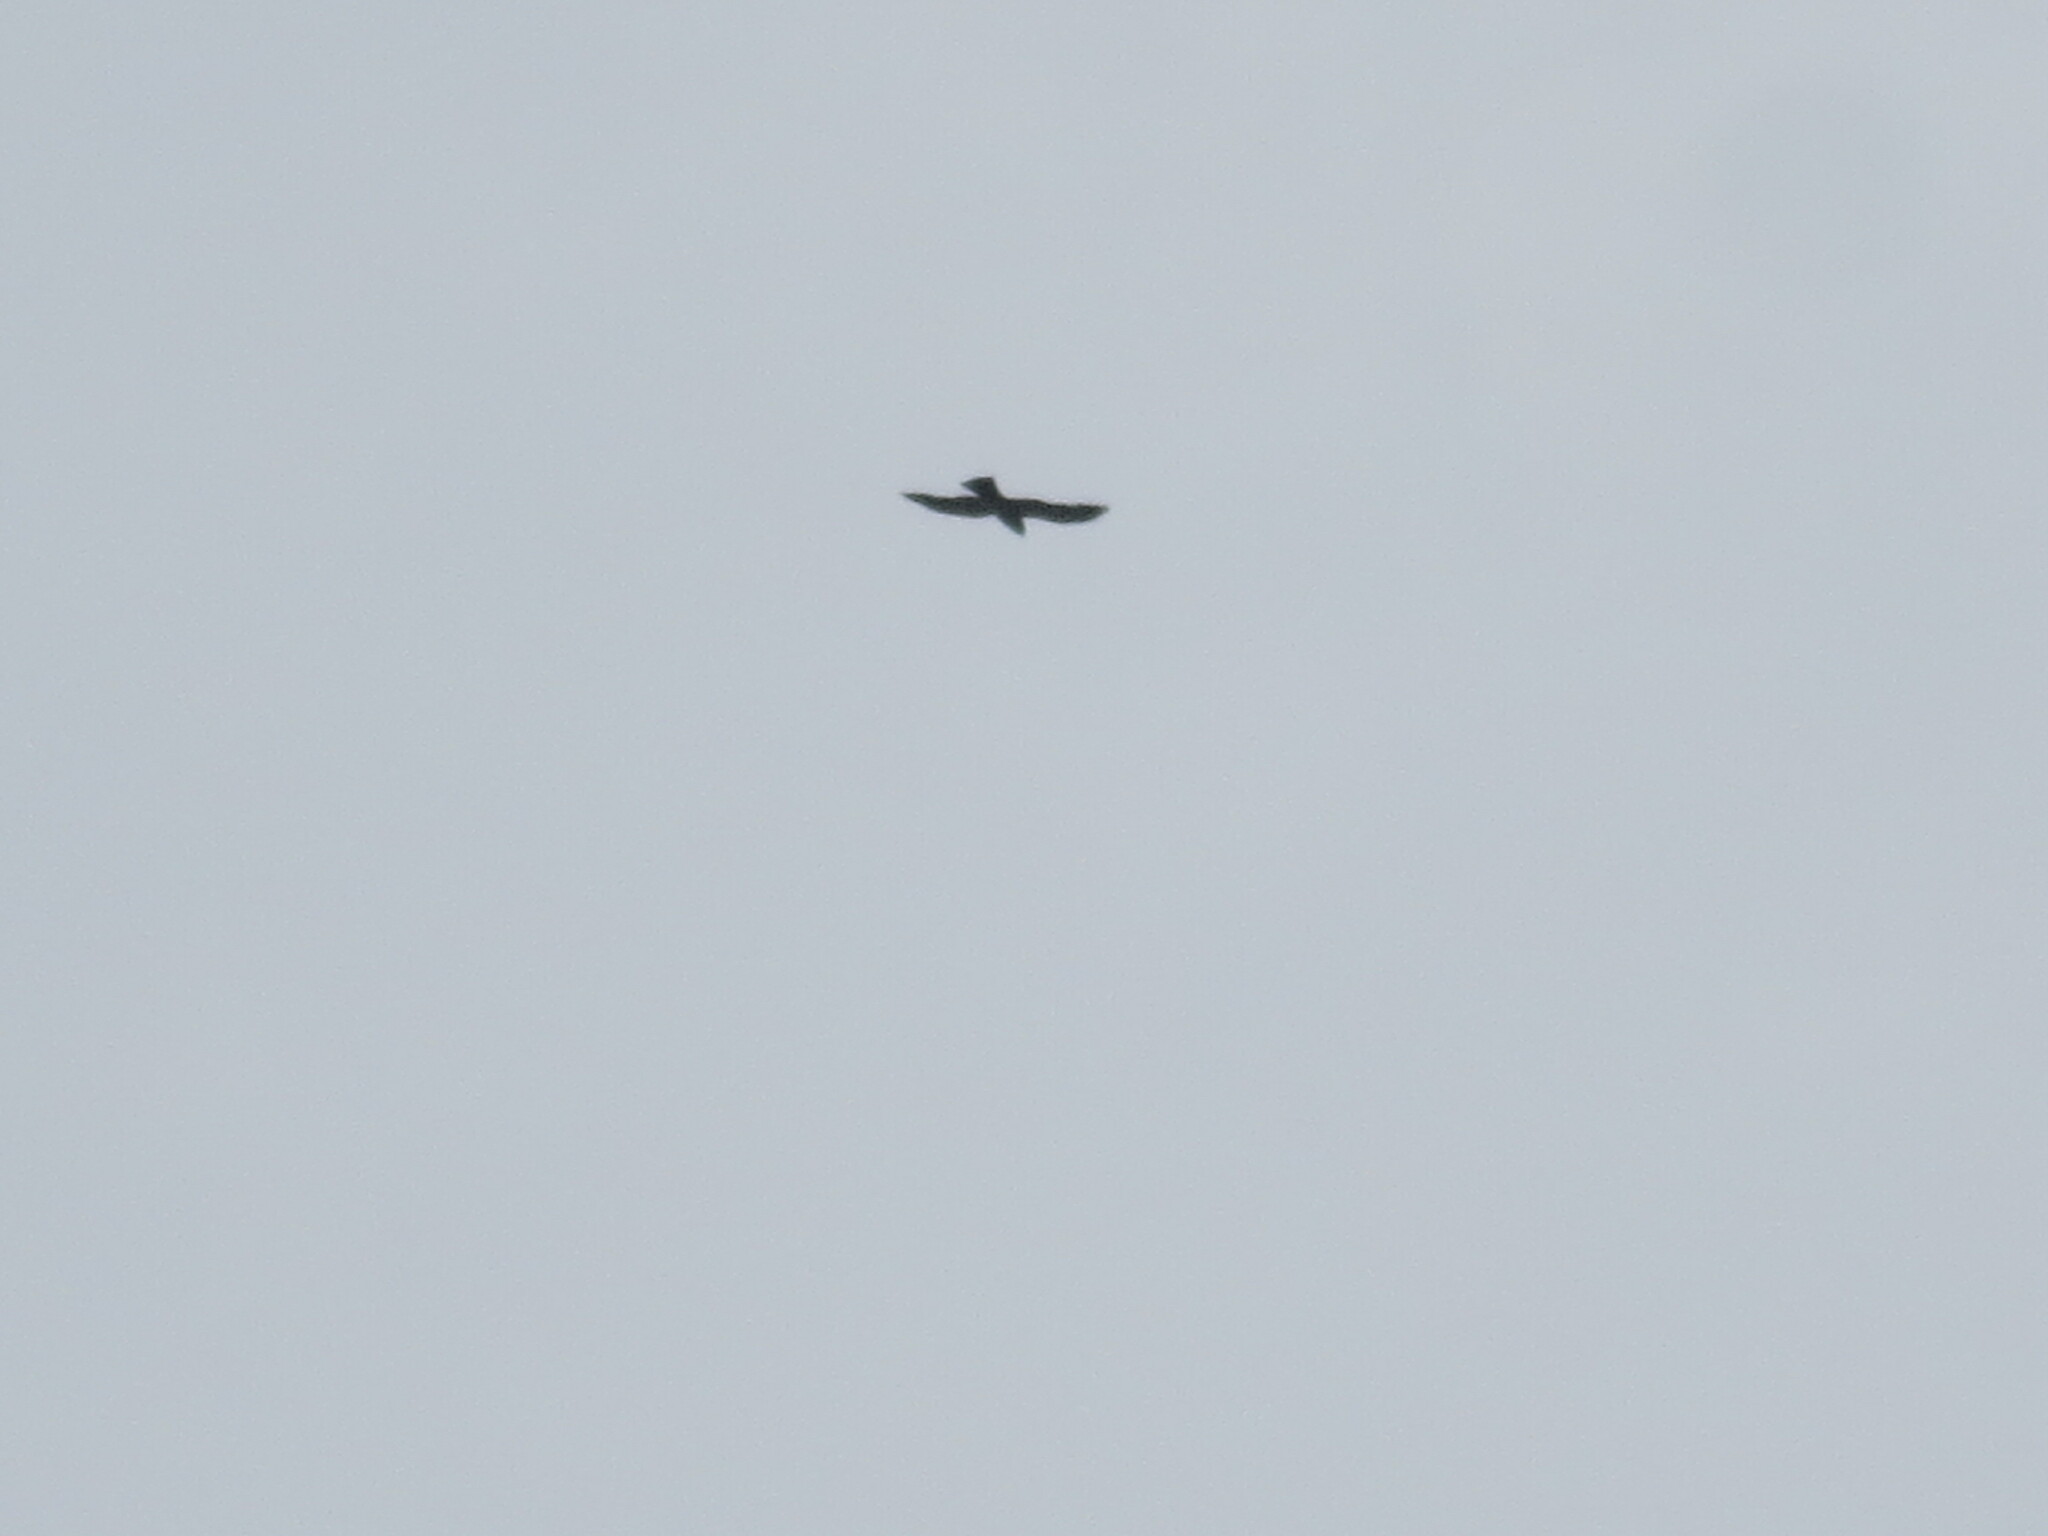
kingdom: Animalia
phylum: Chordata
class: Aves
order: Accipitriformes
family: Accipitridae
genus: Ictinia
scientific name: Ictinia mississippiensis
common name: Mississippi kite
